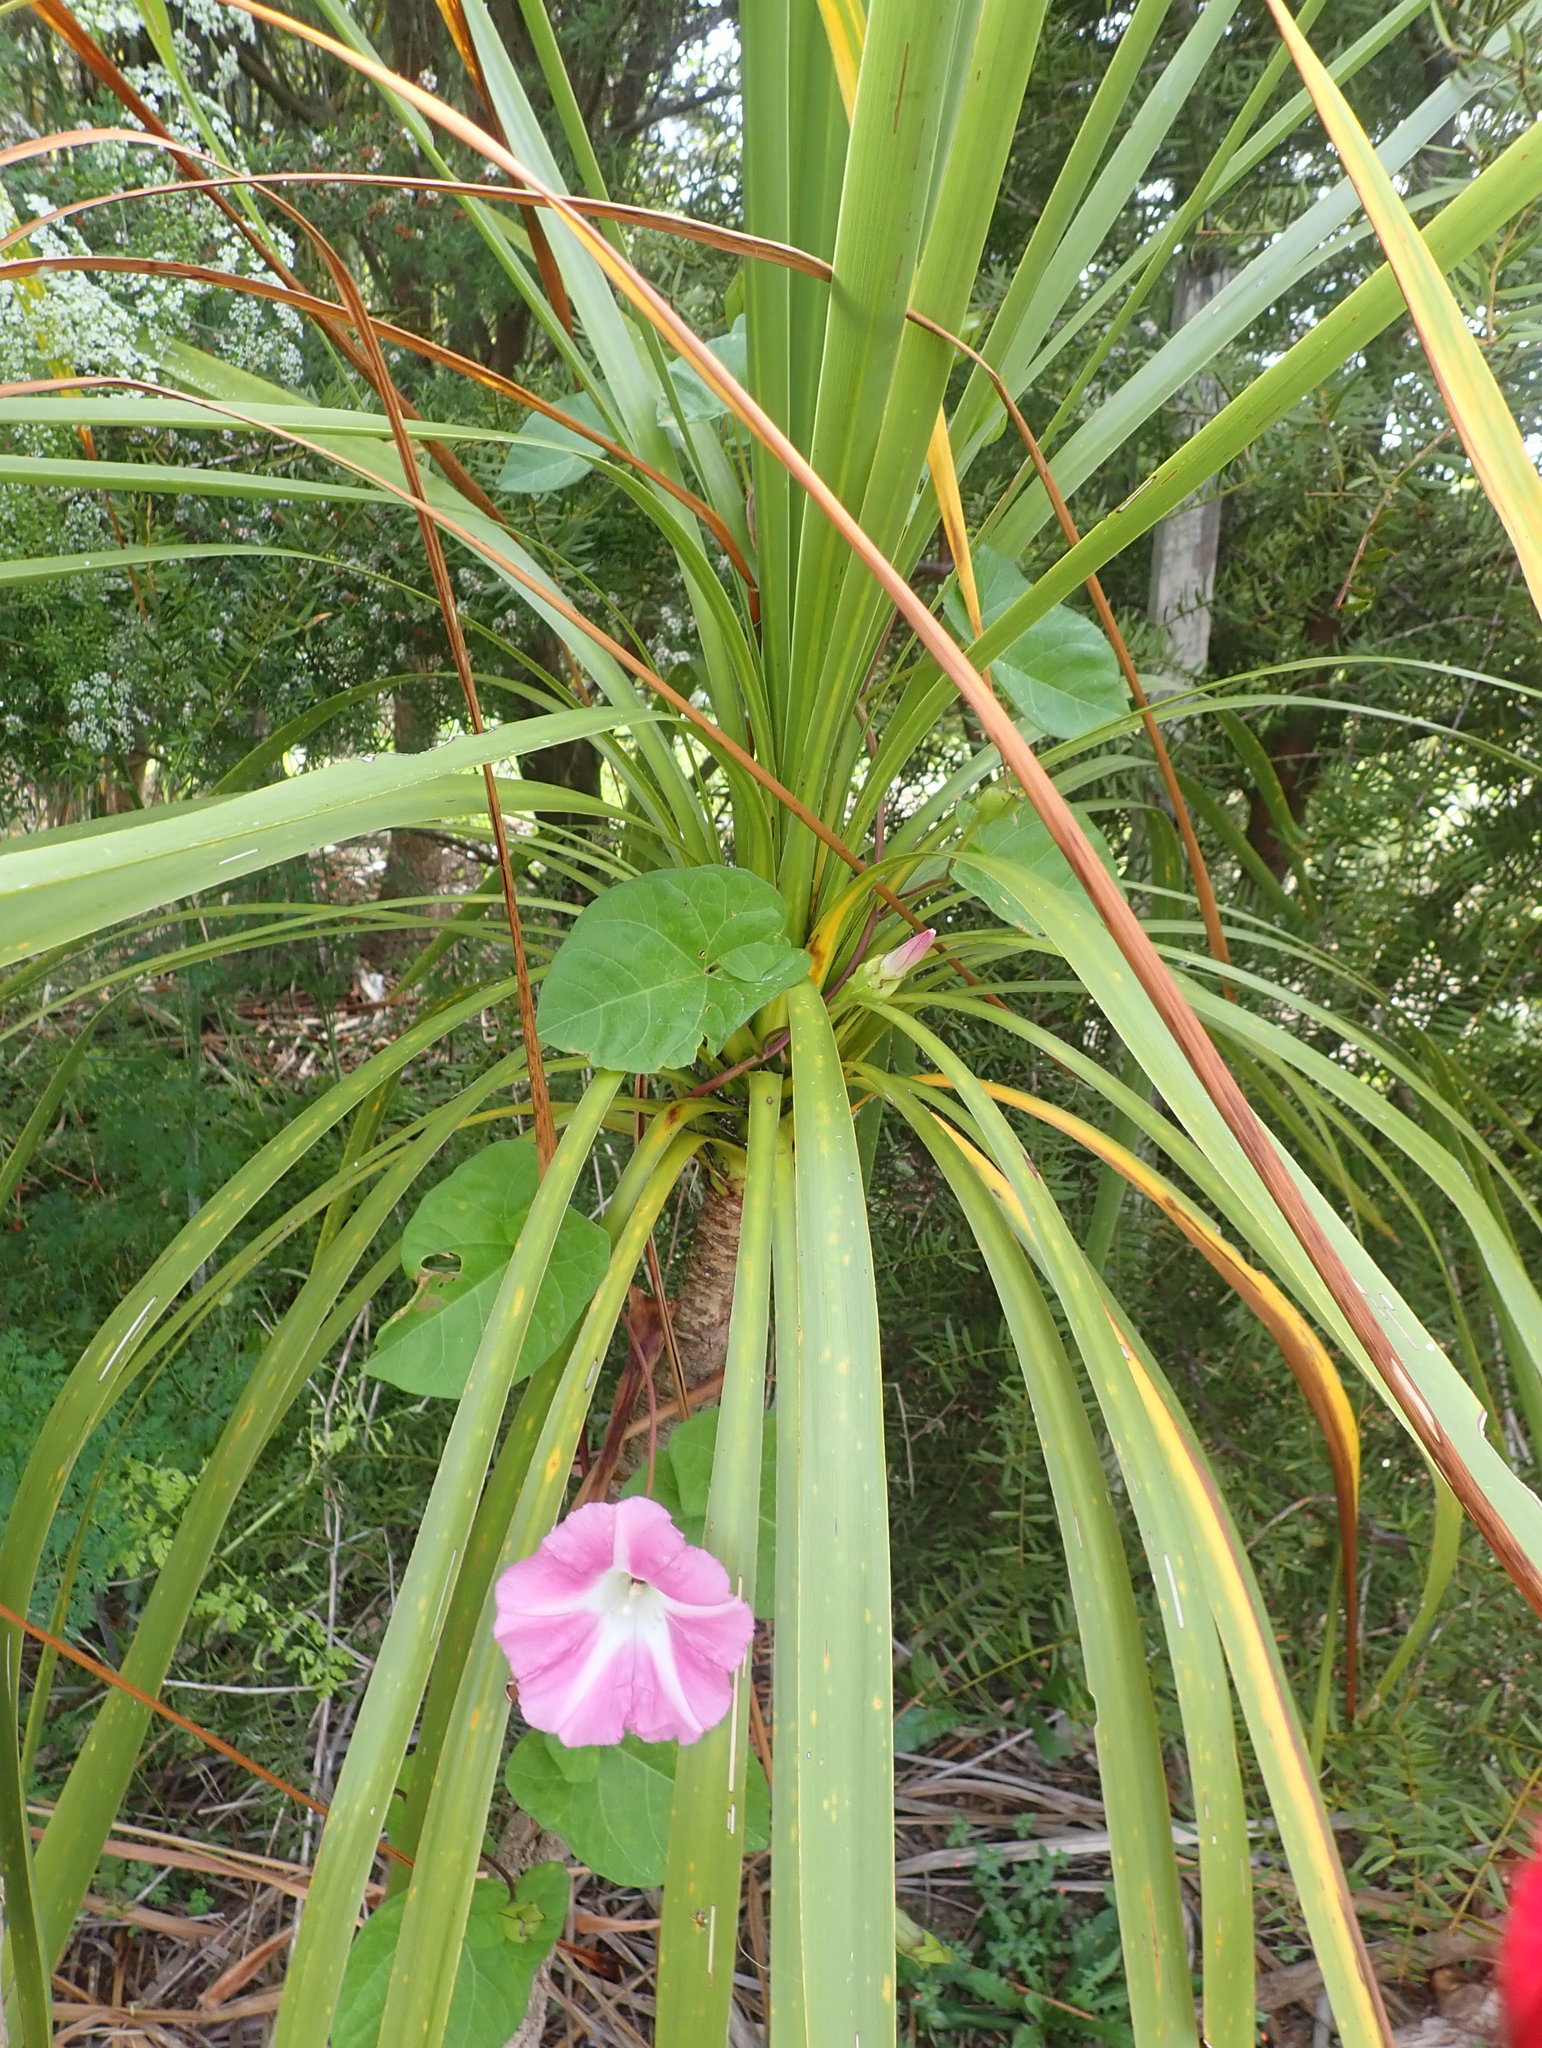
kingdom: Plantae
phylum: Tracheophyta
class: Liliopsida
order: Asparagales
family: Asparagaceae
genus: Cordyline
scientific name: Cordyline australis
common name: Cabbage-palm
